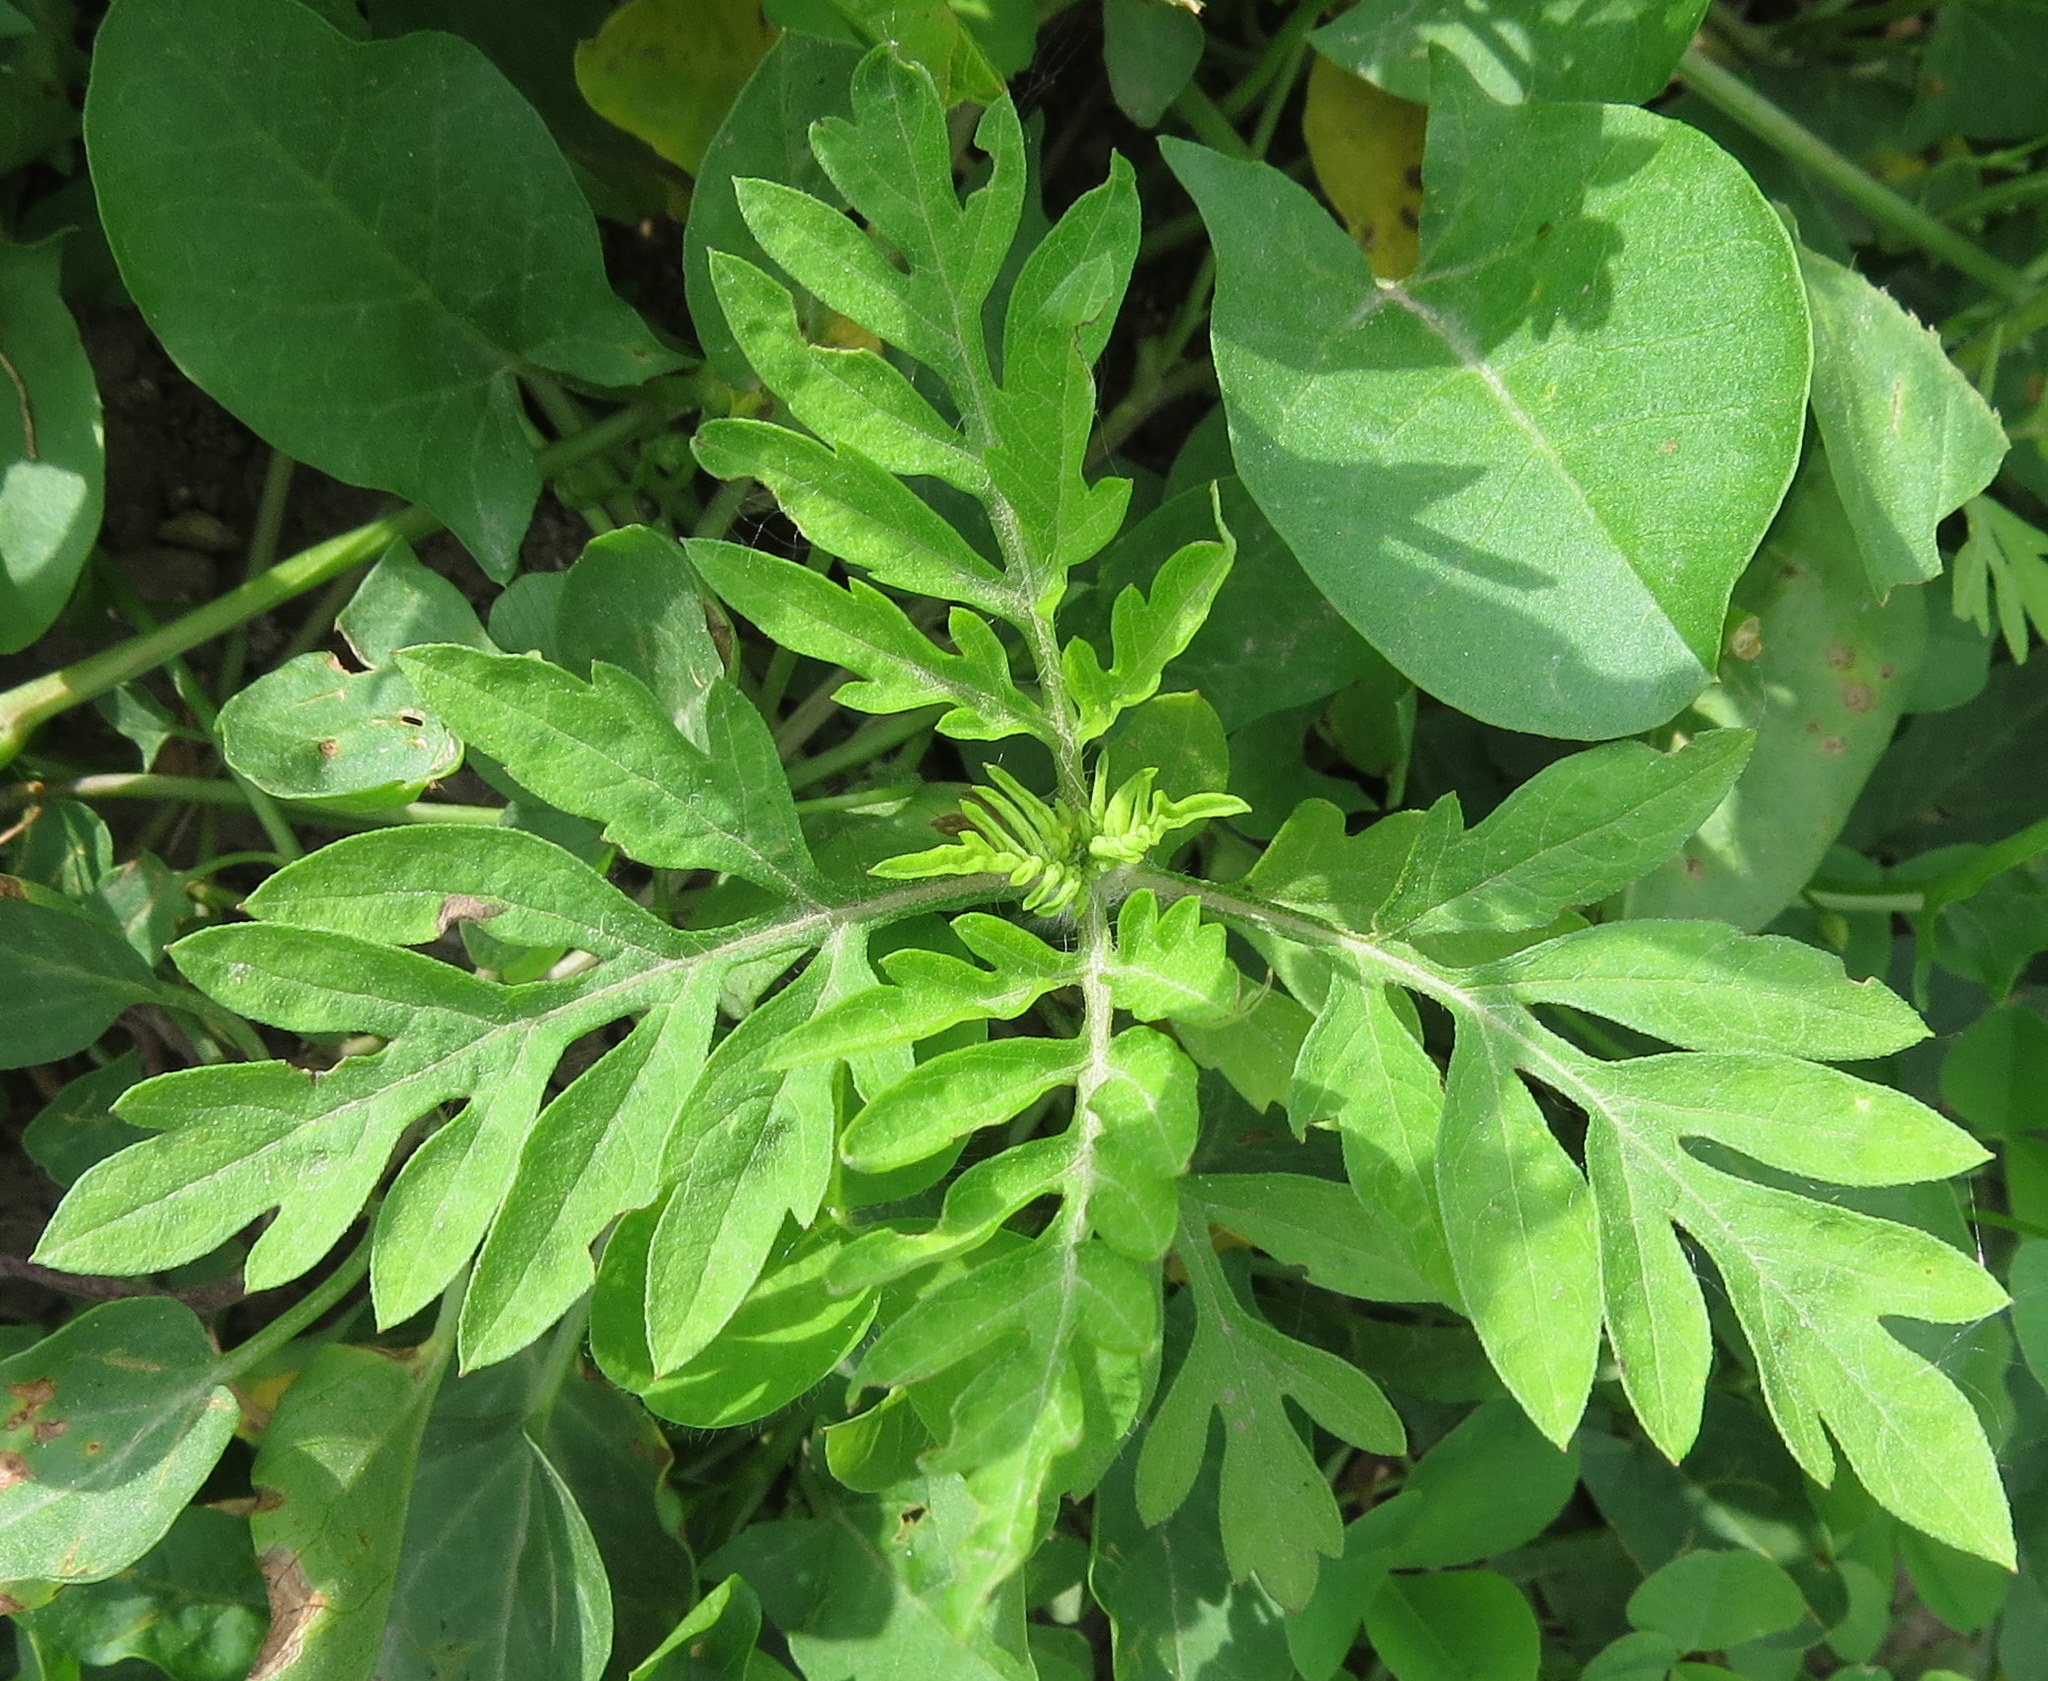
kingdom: Plantae
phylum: Tracheophyta
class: Magnoliopsida
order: Asterales
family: Asteraceae
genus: Ambrosia
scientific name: Ambrosia artemisiifolia
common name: Annual ragweed
